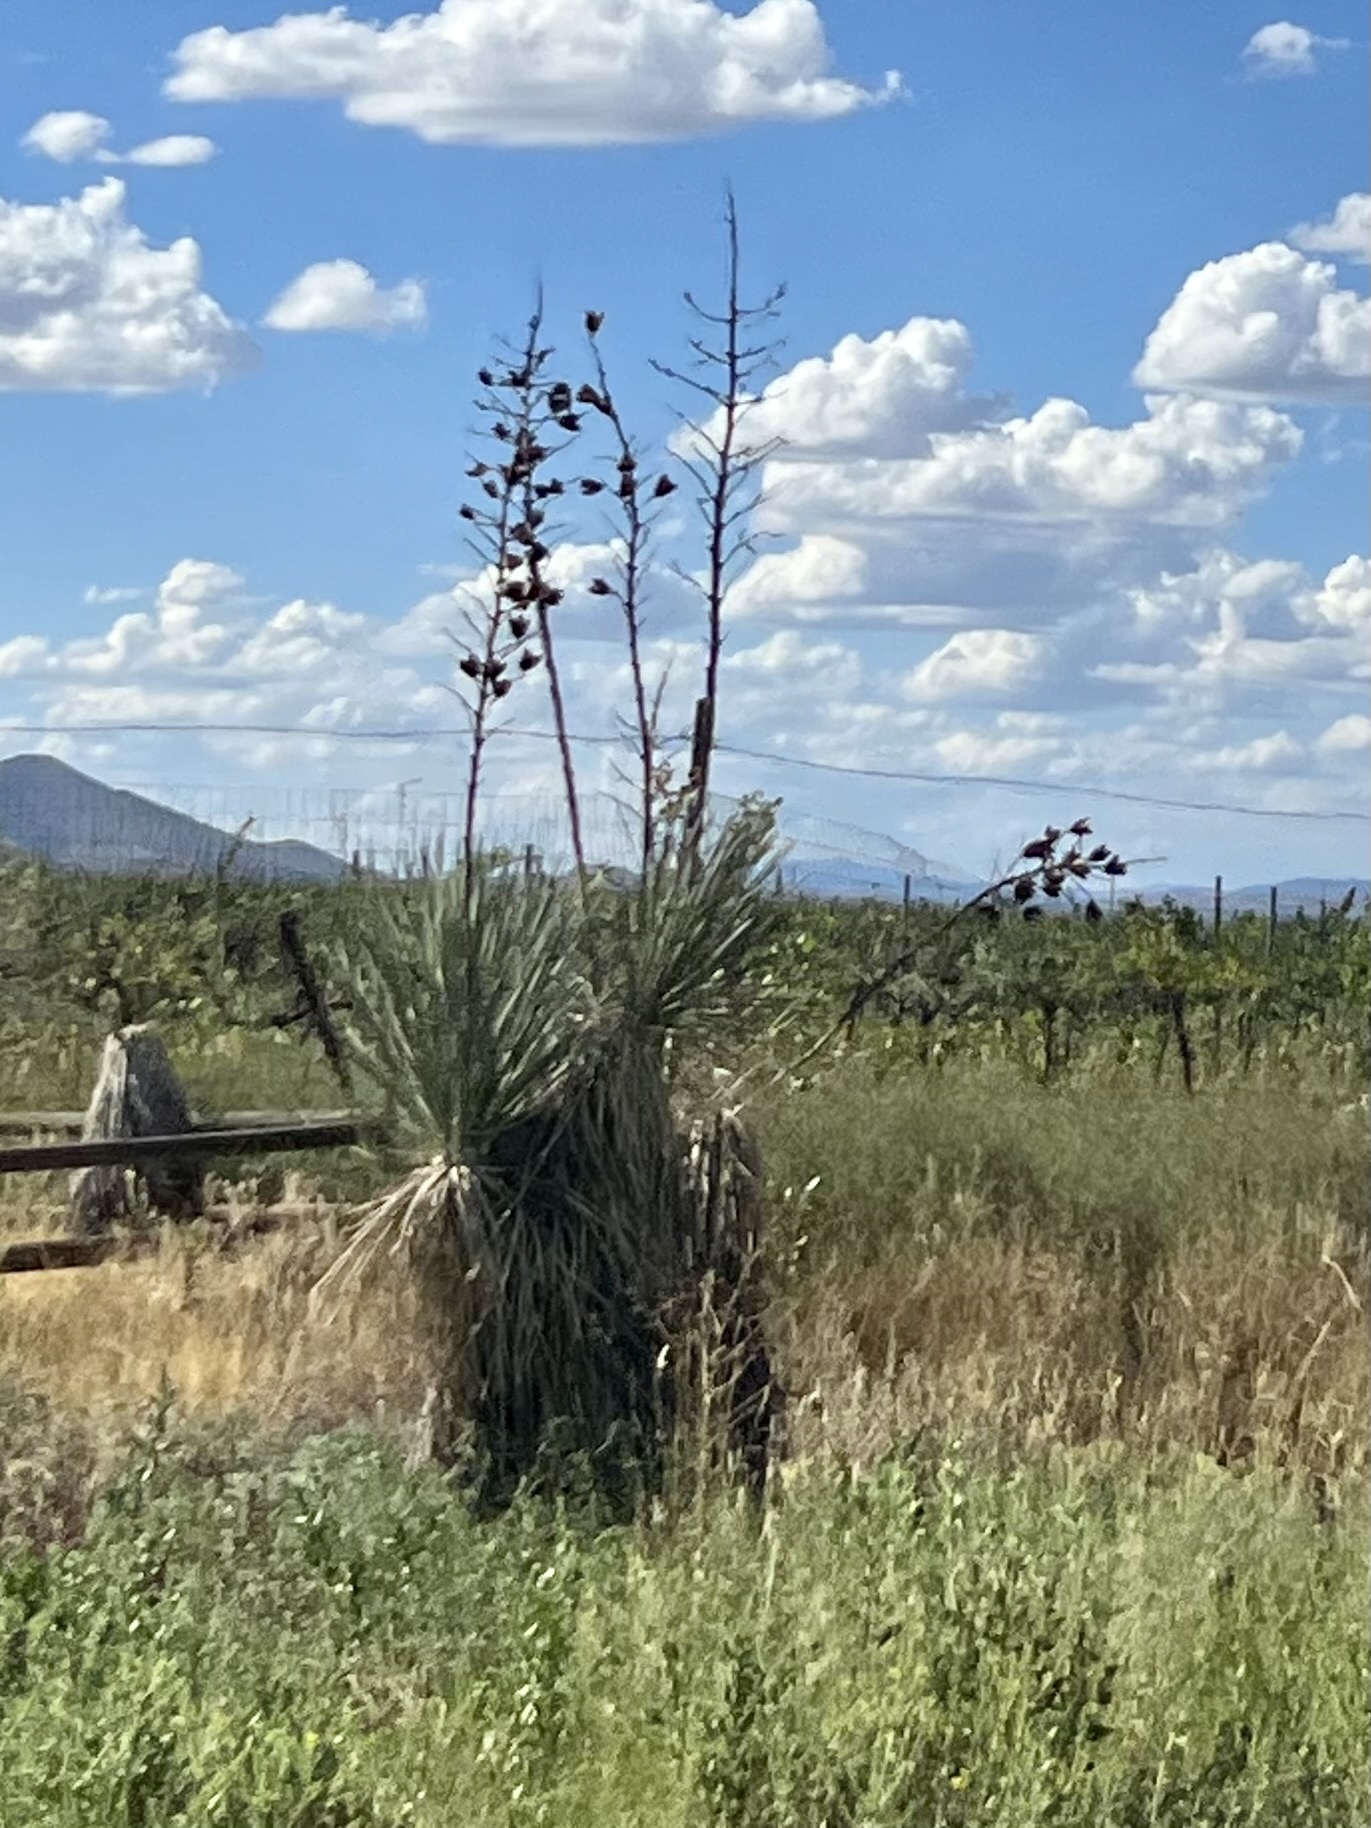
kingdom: Plantae
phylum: Tracheophyta
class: Liliopsida
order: Asparagales
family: Asparagaceae
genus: Yucca
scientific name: Yucca elata
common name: Palmella
